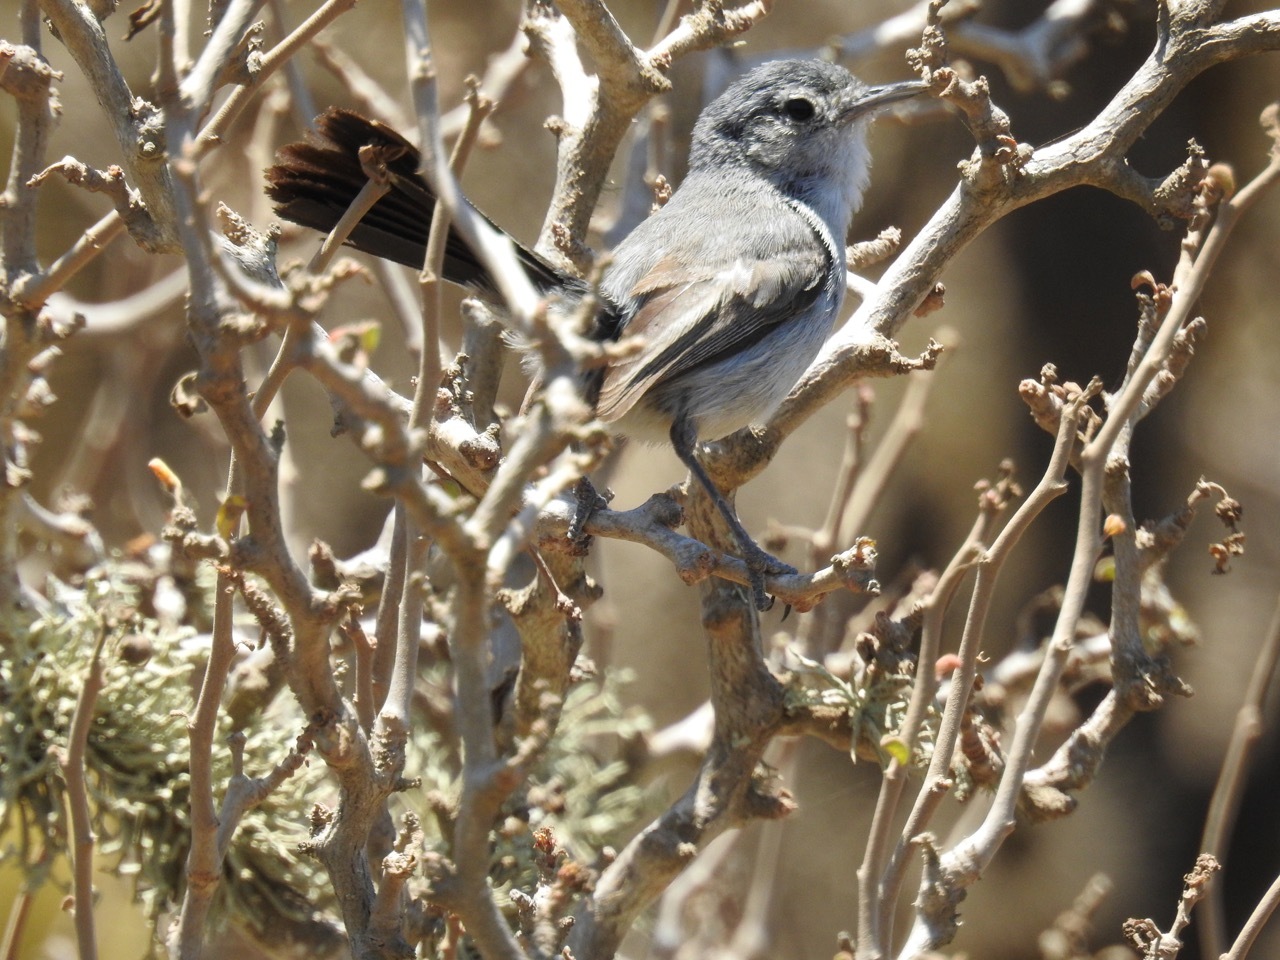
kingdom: Animalia
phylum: Chordata
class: Aves
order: Passeriformes
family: Polioptilidae
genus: Polioptila
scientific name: Polioptila californica
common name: California gnatcatcher
